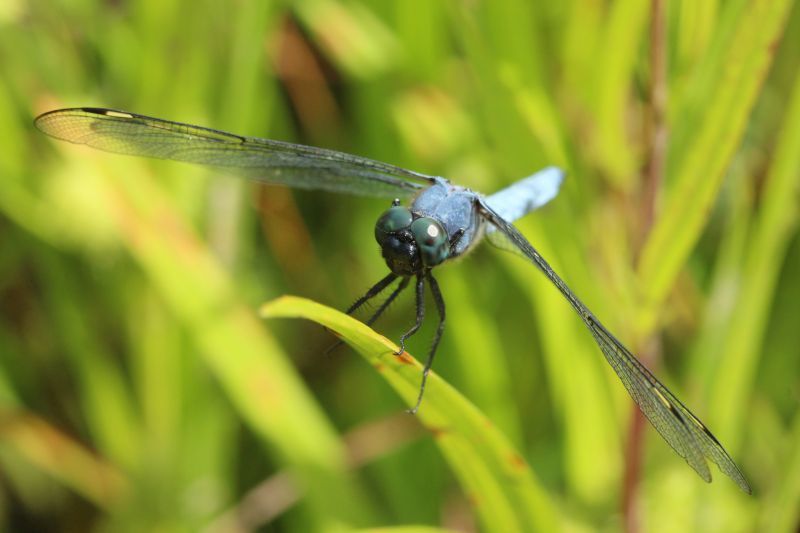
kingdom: Animalia
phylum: Arthropoda
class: Insecta
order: Odonata
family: Libellulidae
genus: Libellula
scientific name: Libellula cyanea
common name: Spangled skimmer
